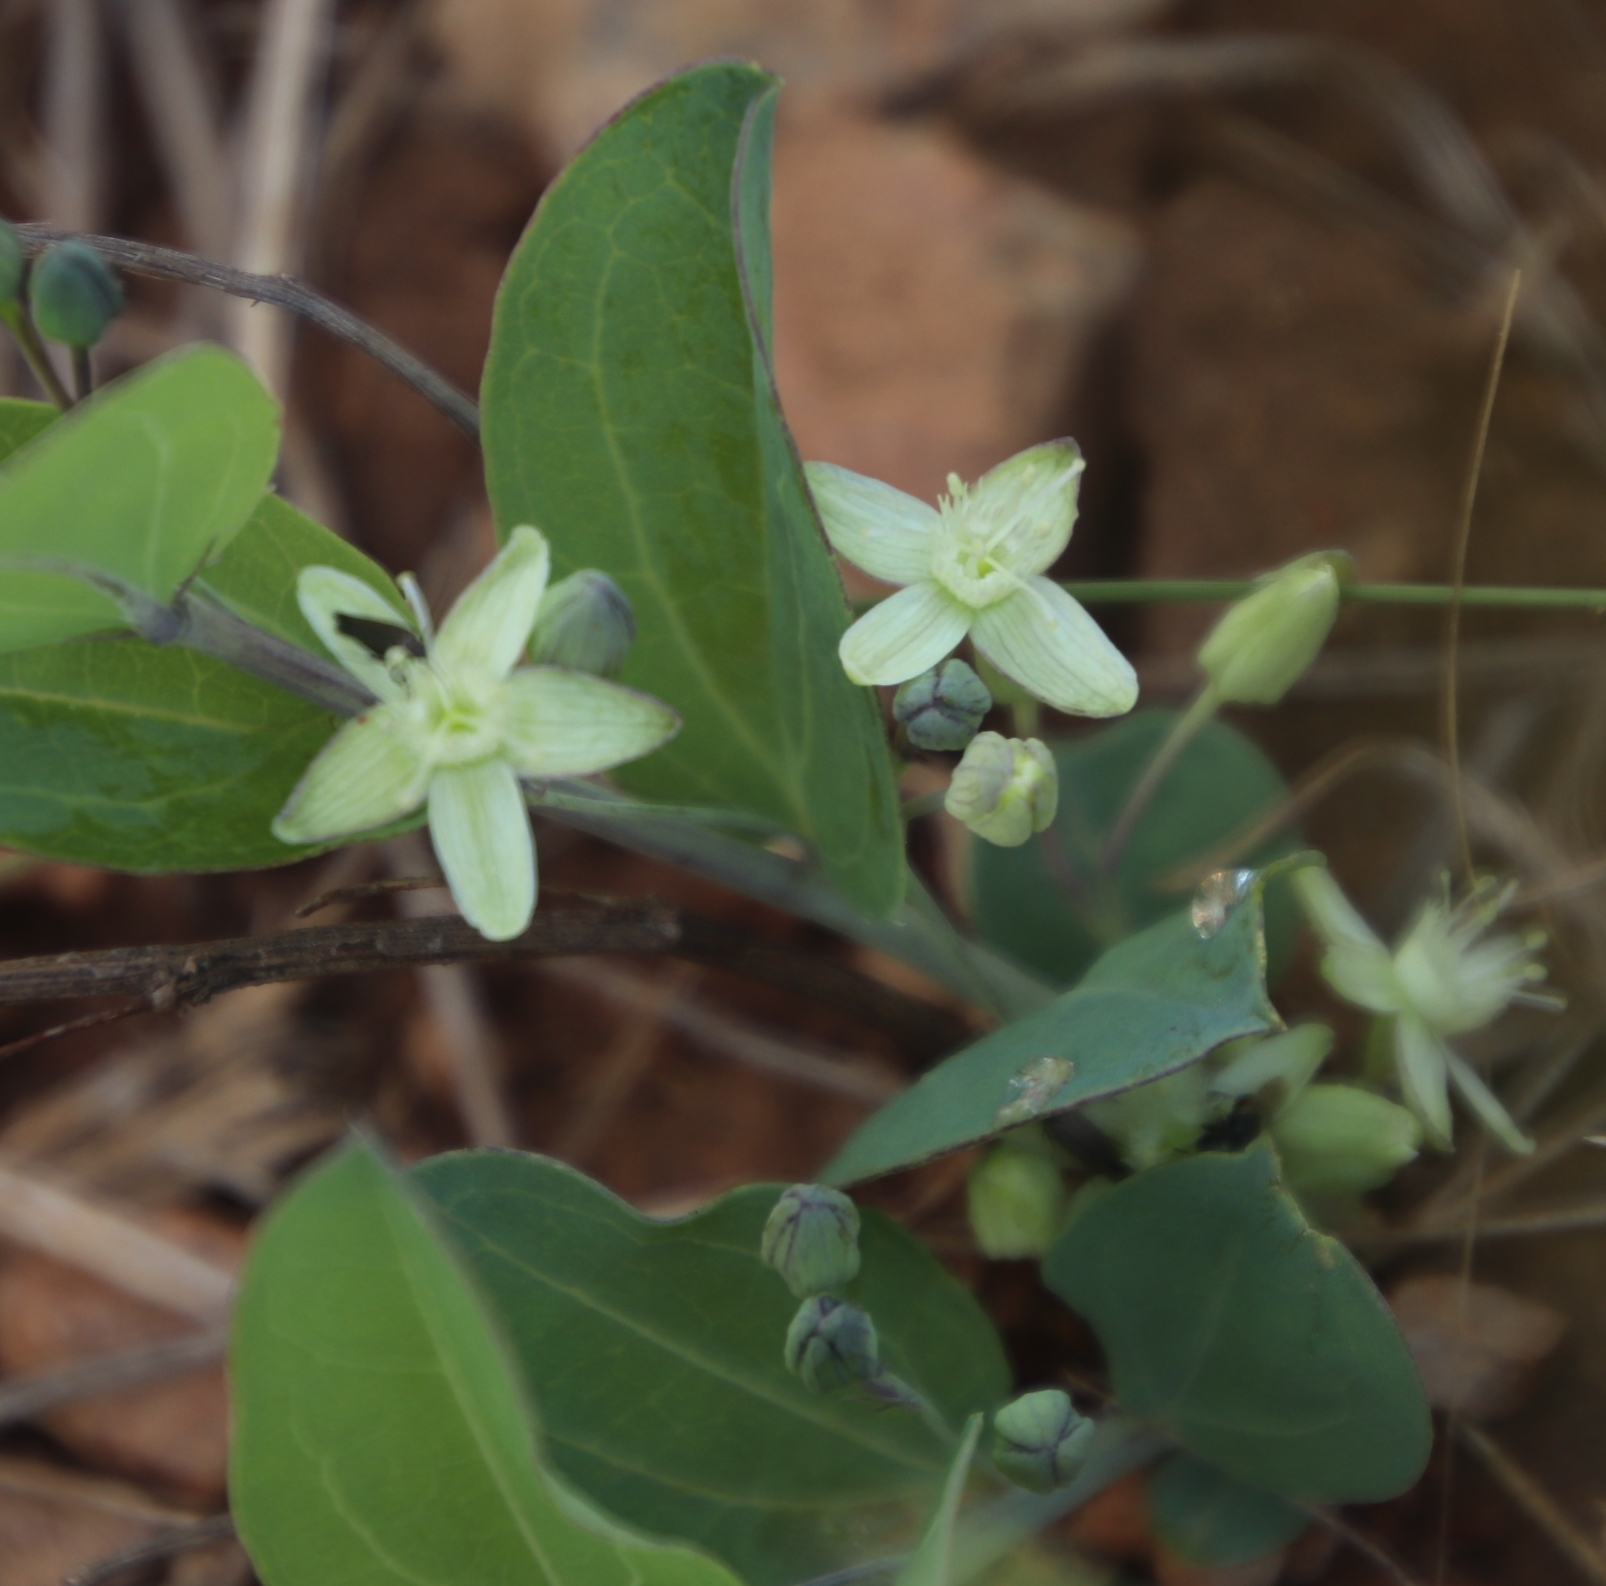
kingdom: Plantae
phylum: Tracheophyta
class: Magnoliopsida
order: Malpighiales
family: Passifloraceae
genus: Basananthe
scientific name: Basananthe sandersonii
